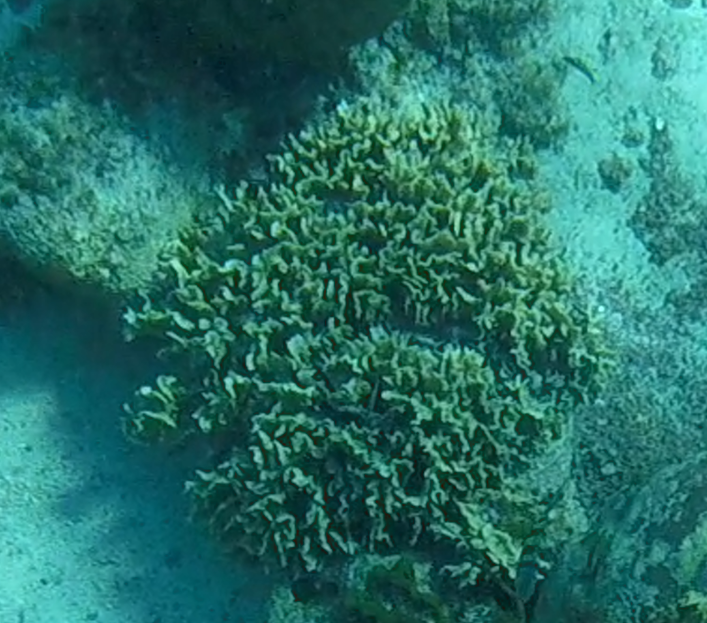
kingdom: Animalia
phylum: Cnidaria
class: Anthozoa
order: Scleractinia
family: Agariciidae
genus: Agaricia
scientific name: Agaricia tenuifolia
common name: Thin leaf lettuce coral
